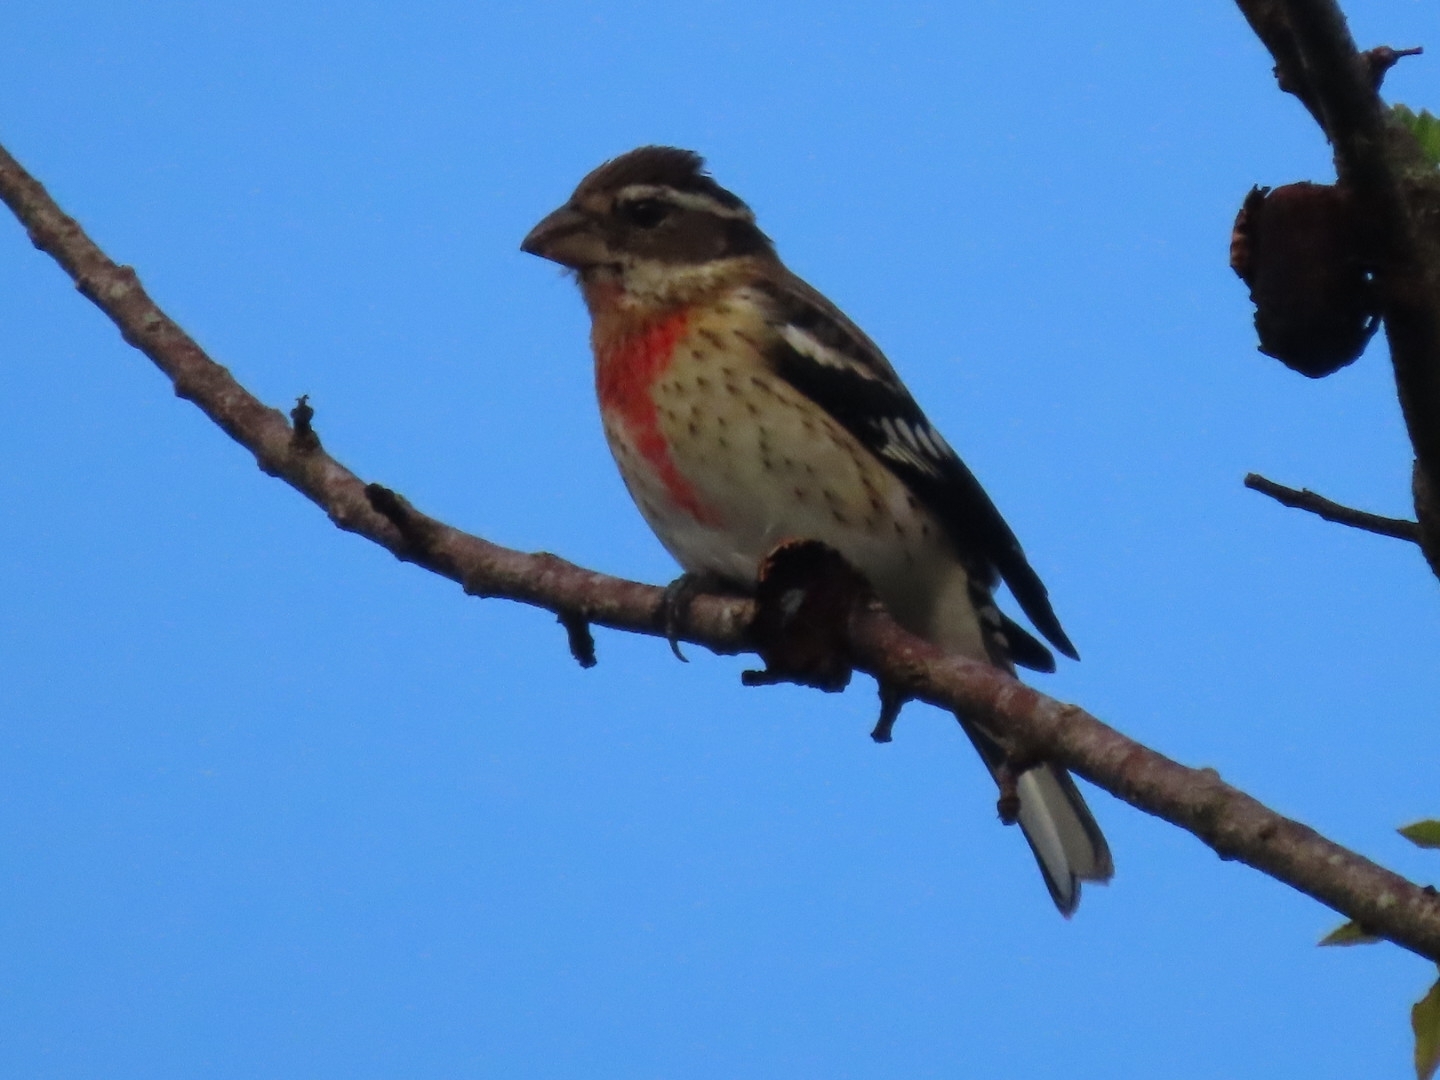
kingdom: Animalia
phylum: Chordata
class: Aves
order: Passeriformes
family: Cardinalidae
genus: Pheucticus
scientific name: Pheucticus ludovicianus
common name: Rose-breasted grosbeak
